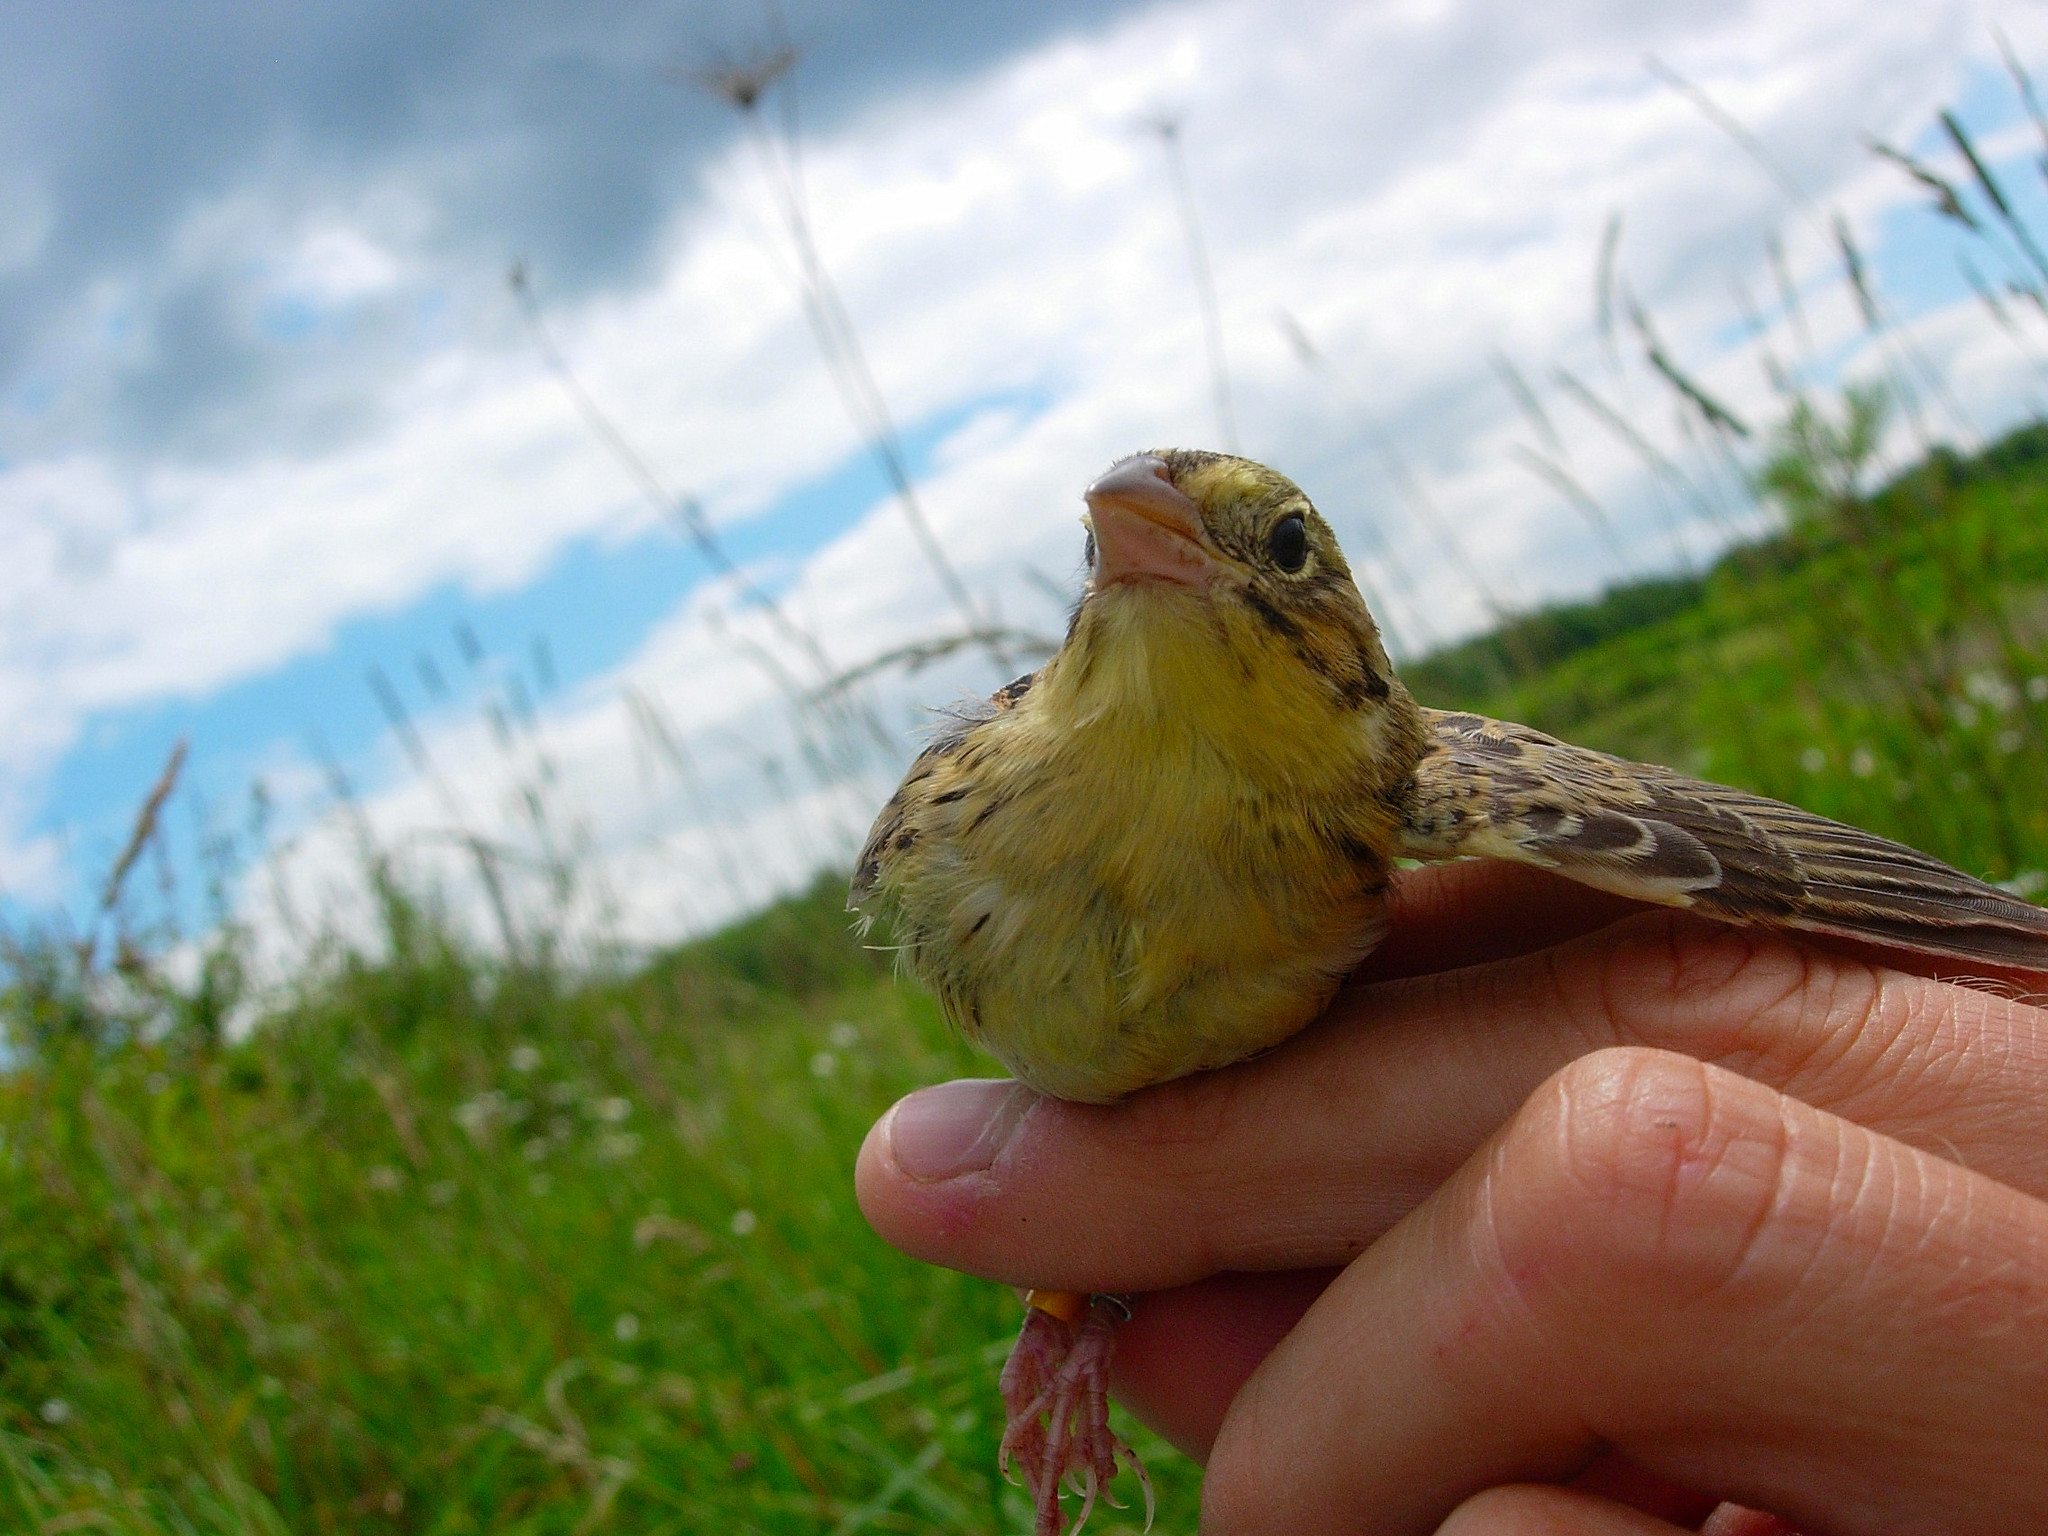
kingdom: Animalia
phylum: Chordata
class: Aves
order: Passeriformes
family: Passerellidae
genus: Centronyx
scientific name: Centronyx henslowii
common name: Henslow's sparrow
